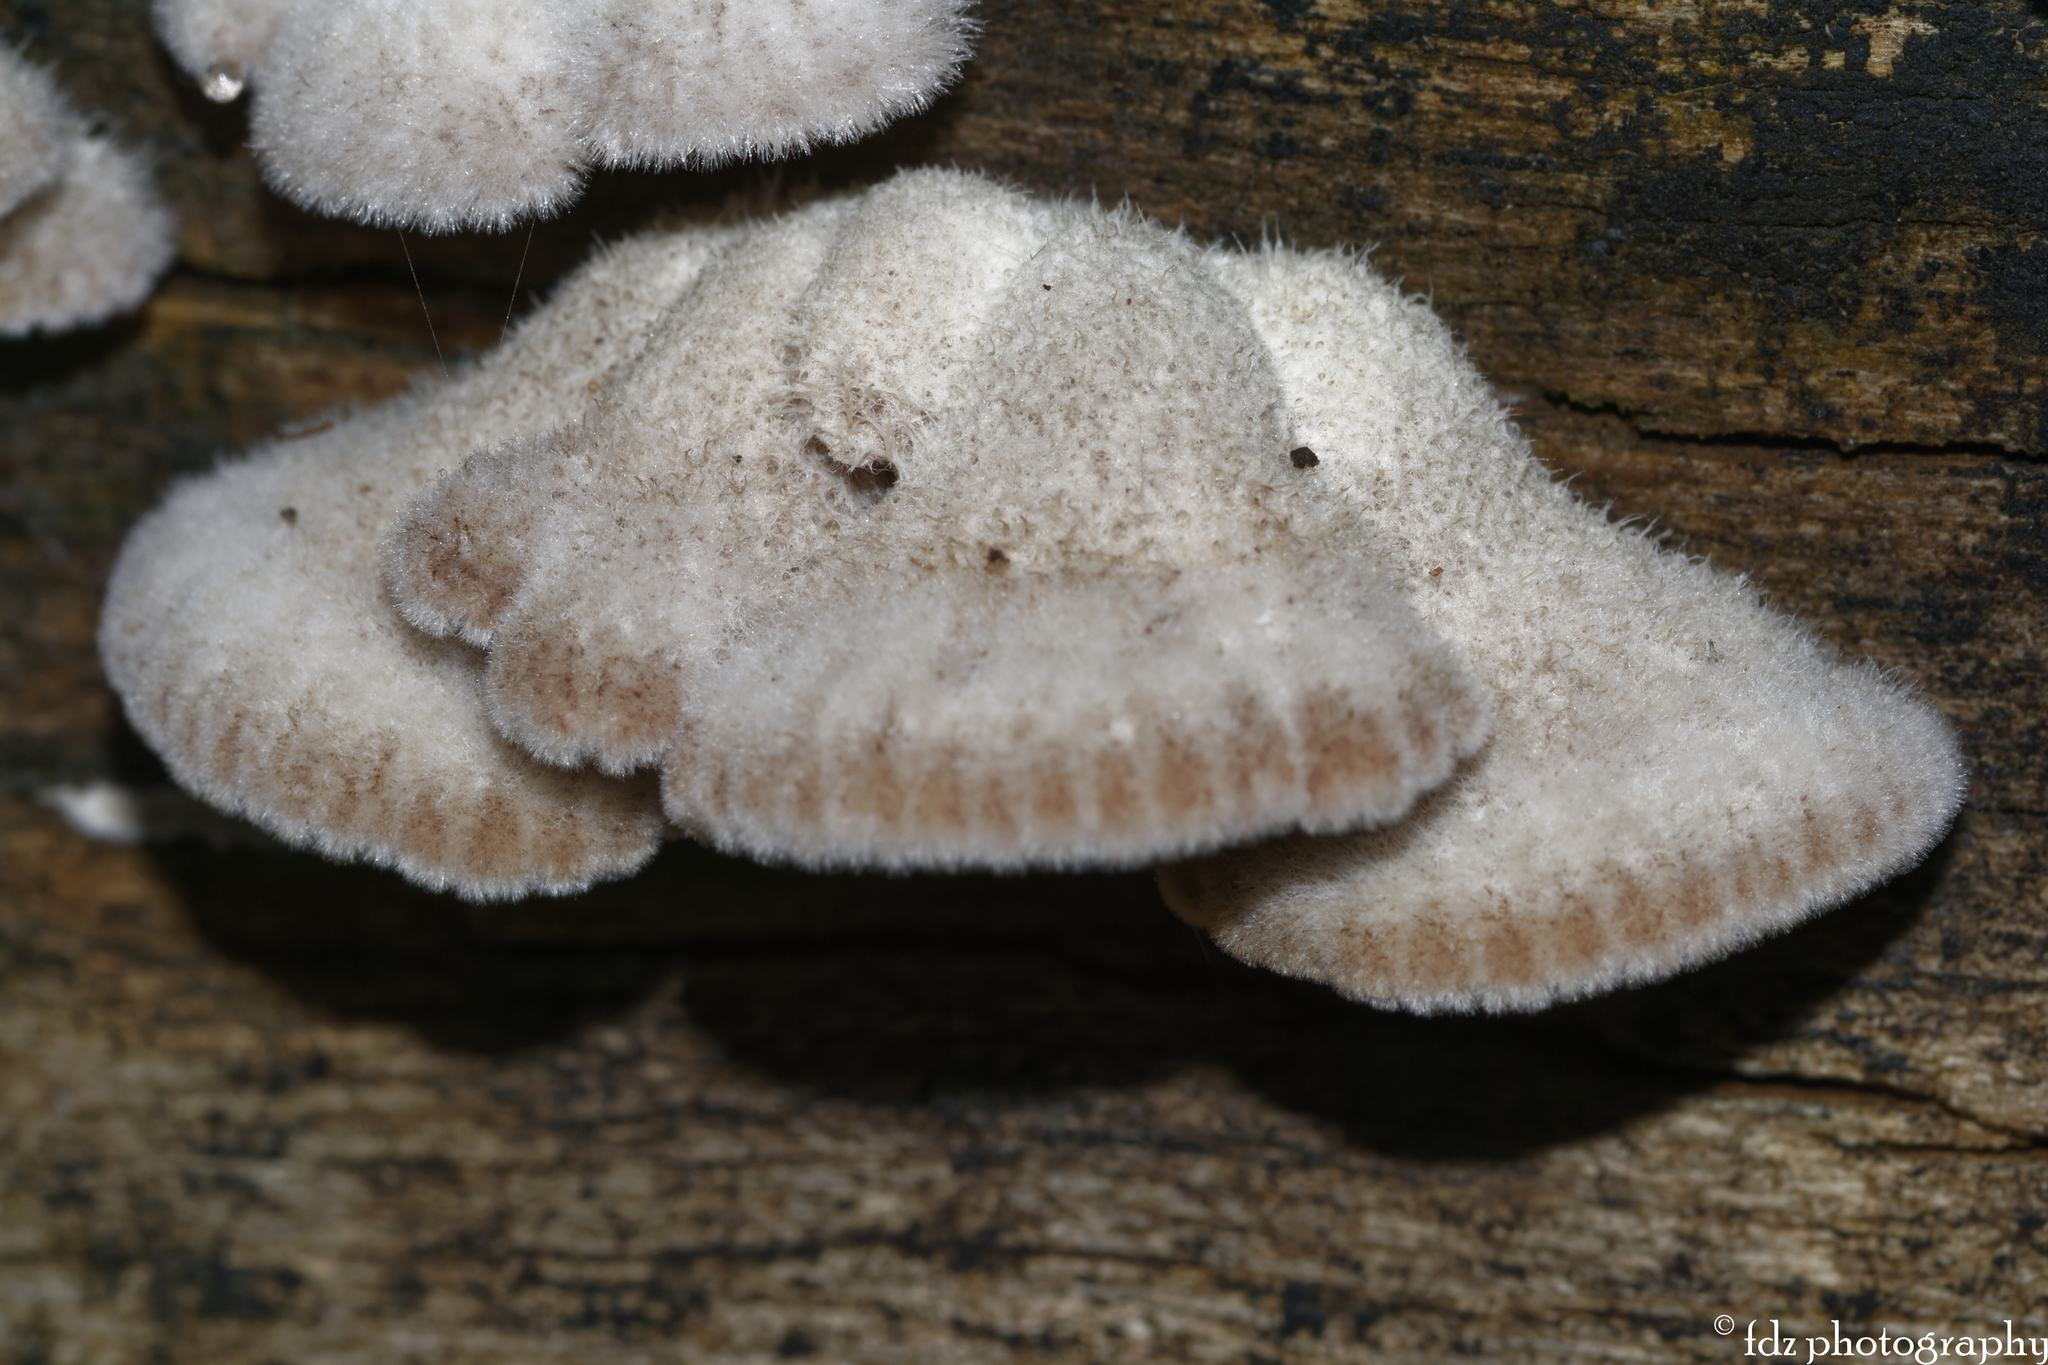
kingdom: Fungi
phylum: Basidiomycota
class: Agaricomycetes
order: Agaricales
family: Schizophyllaceae
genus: Schizophyllum
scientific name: Schizophyllum commune
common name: Common porecrust
